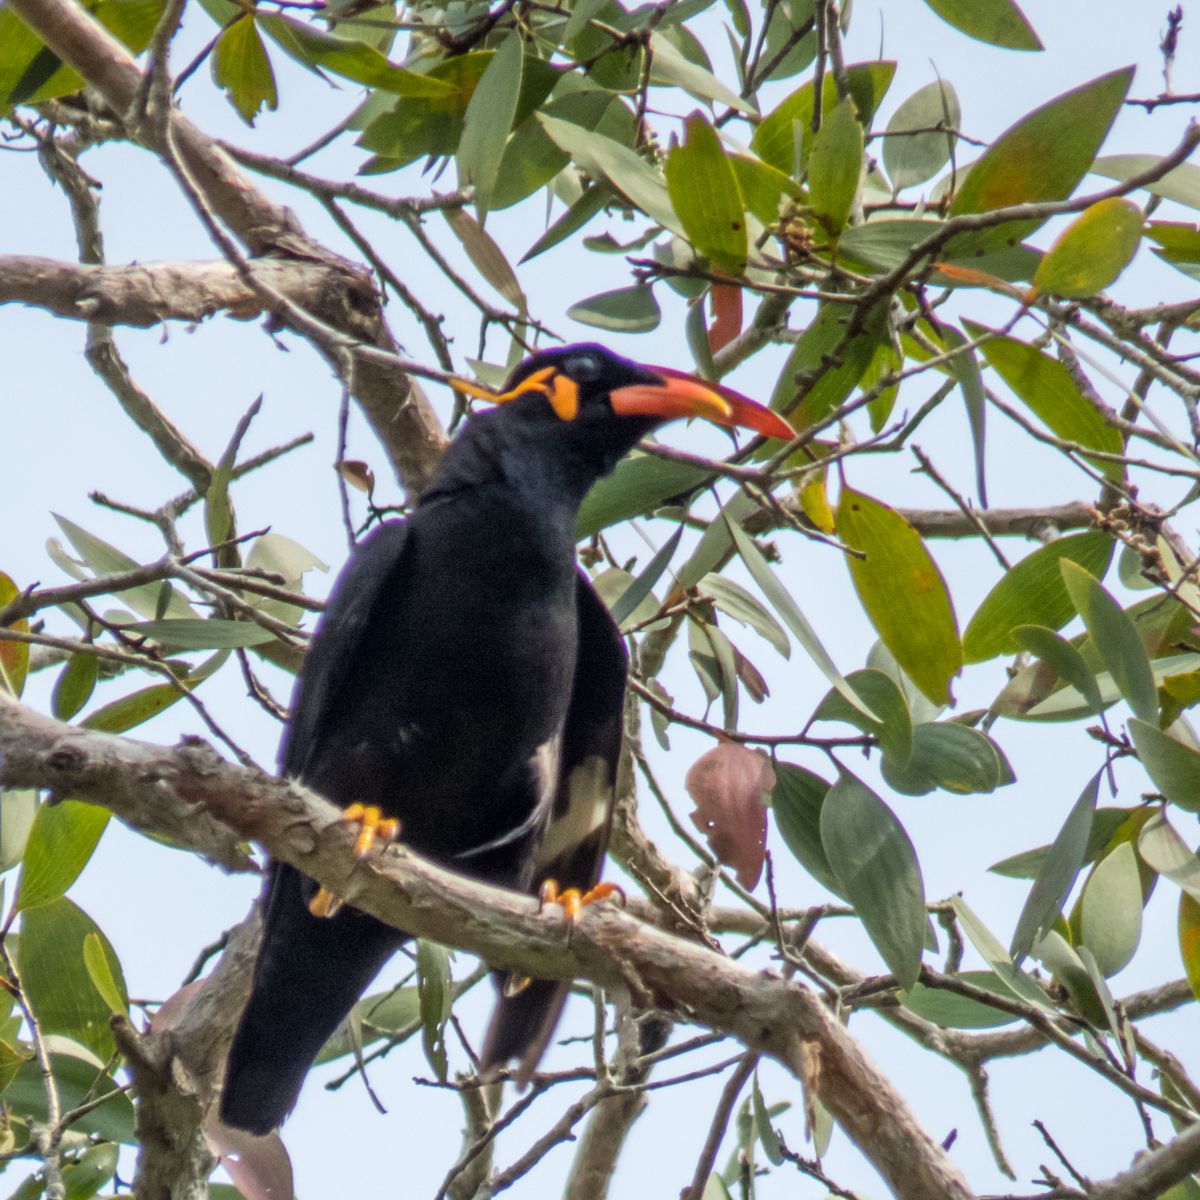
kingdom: Animalia
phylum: Chordata
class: Aves
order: Passeriformes
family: Sturnidae
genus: Gracula
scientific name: Gracula religiosa
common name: Common hill myna
